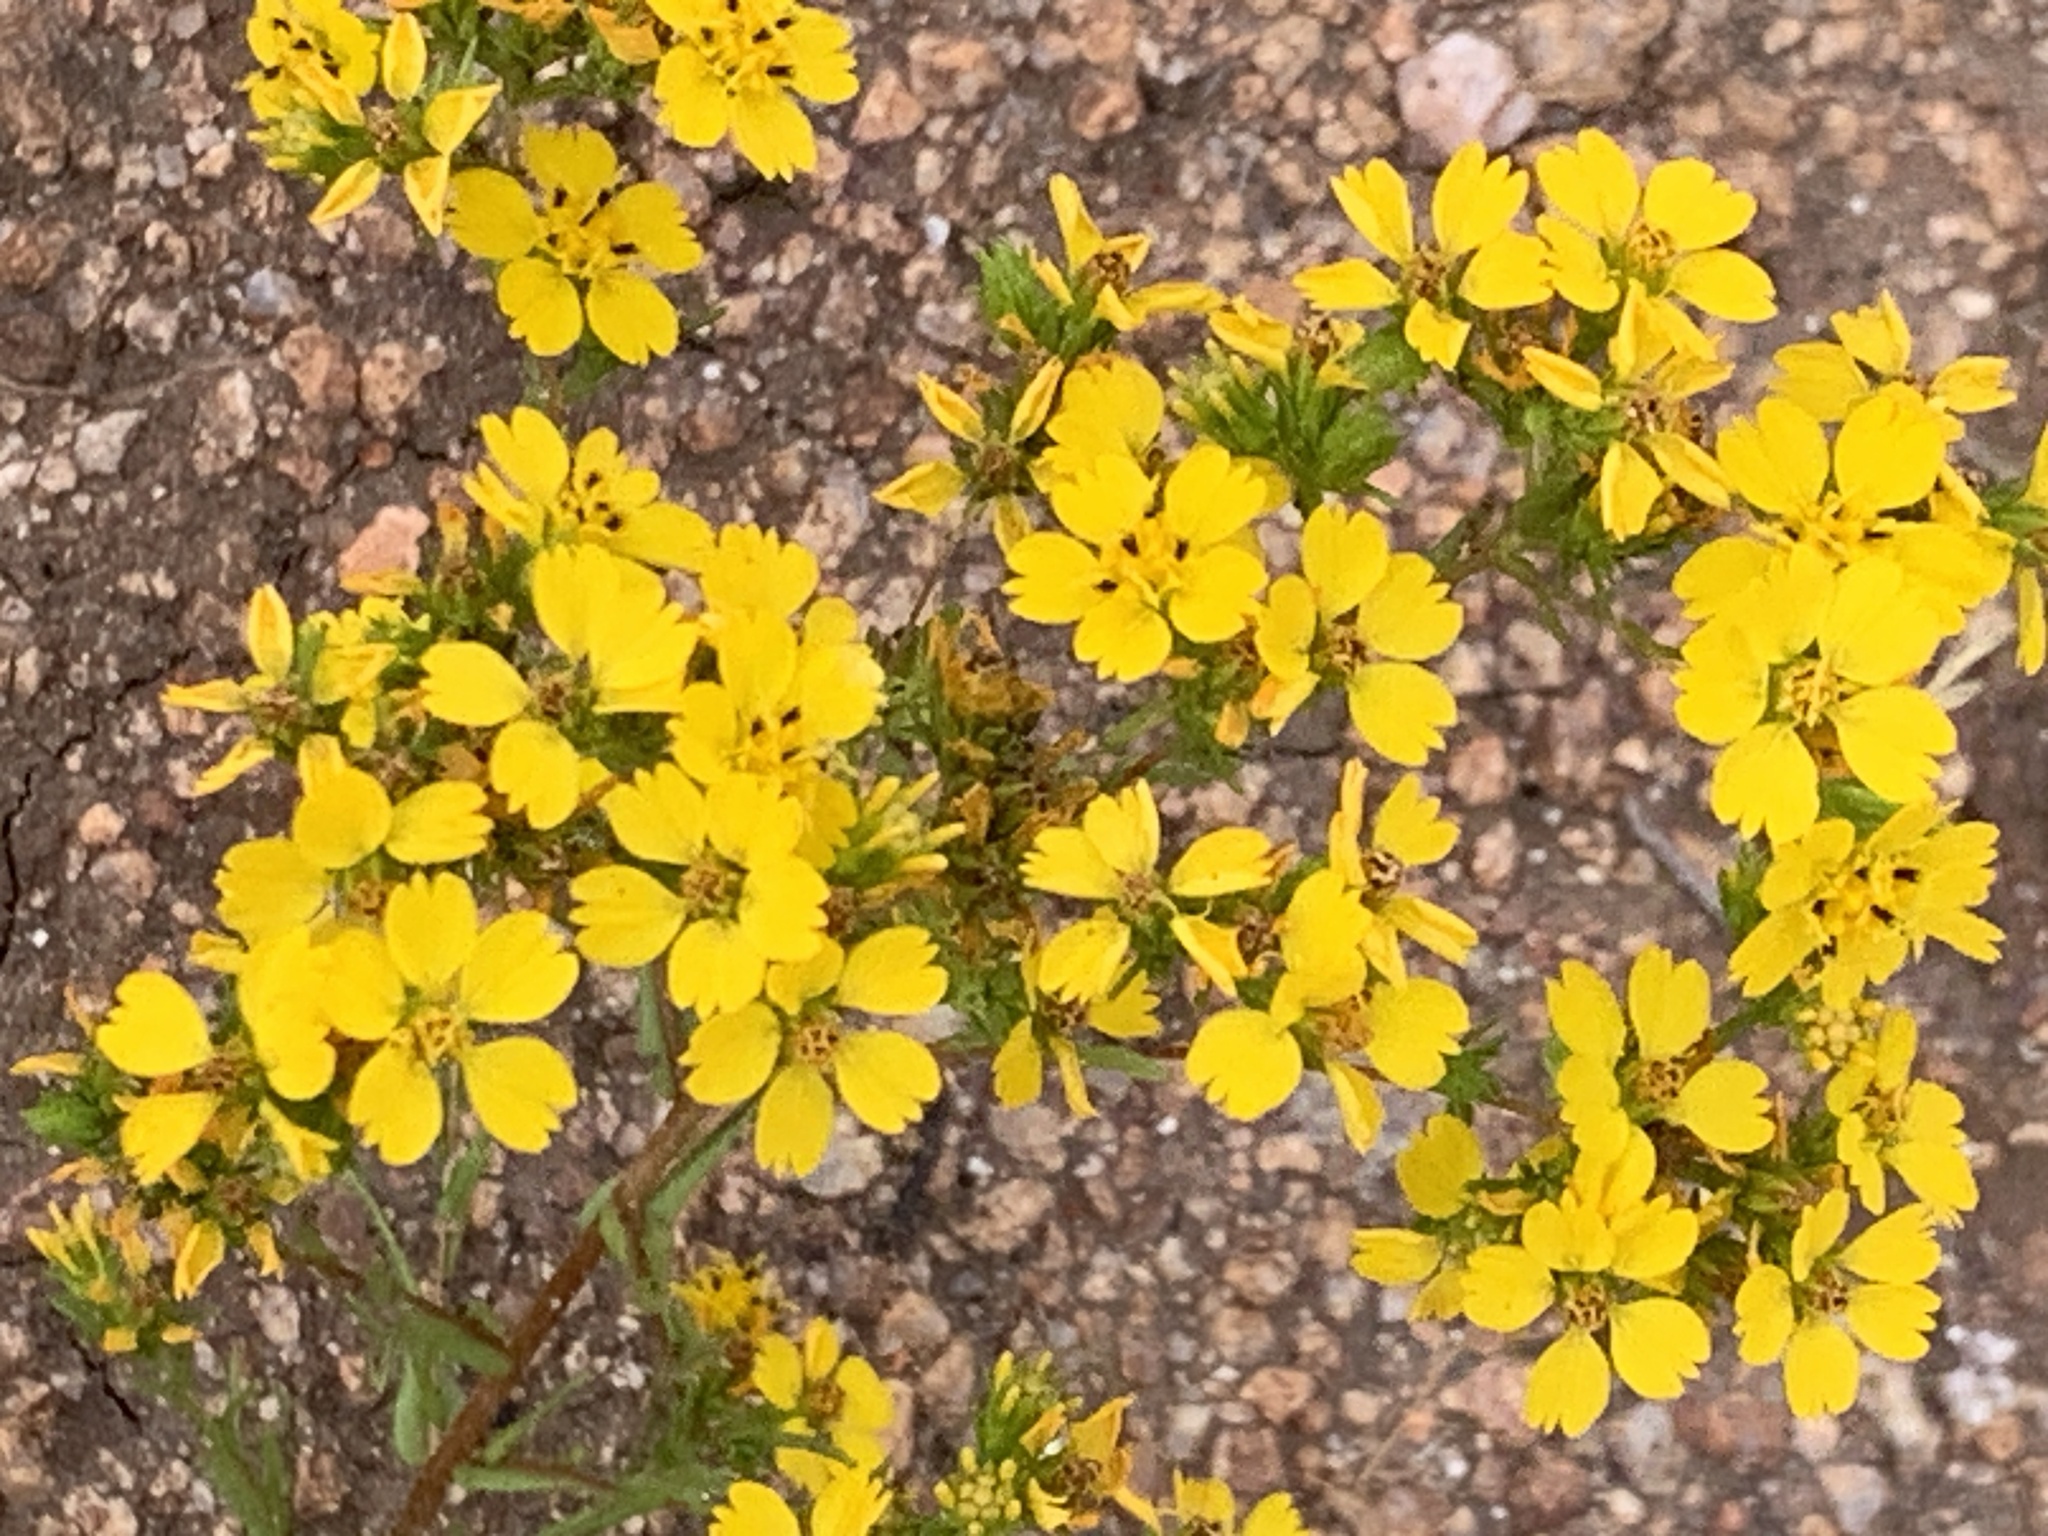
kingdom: Plantae
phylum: Tracheophyta
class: Magnoliopsida
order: Asterales
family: Asteraceae
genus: Deinandra
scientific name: Deinandra fasciculata
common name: Clustered tarweed
